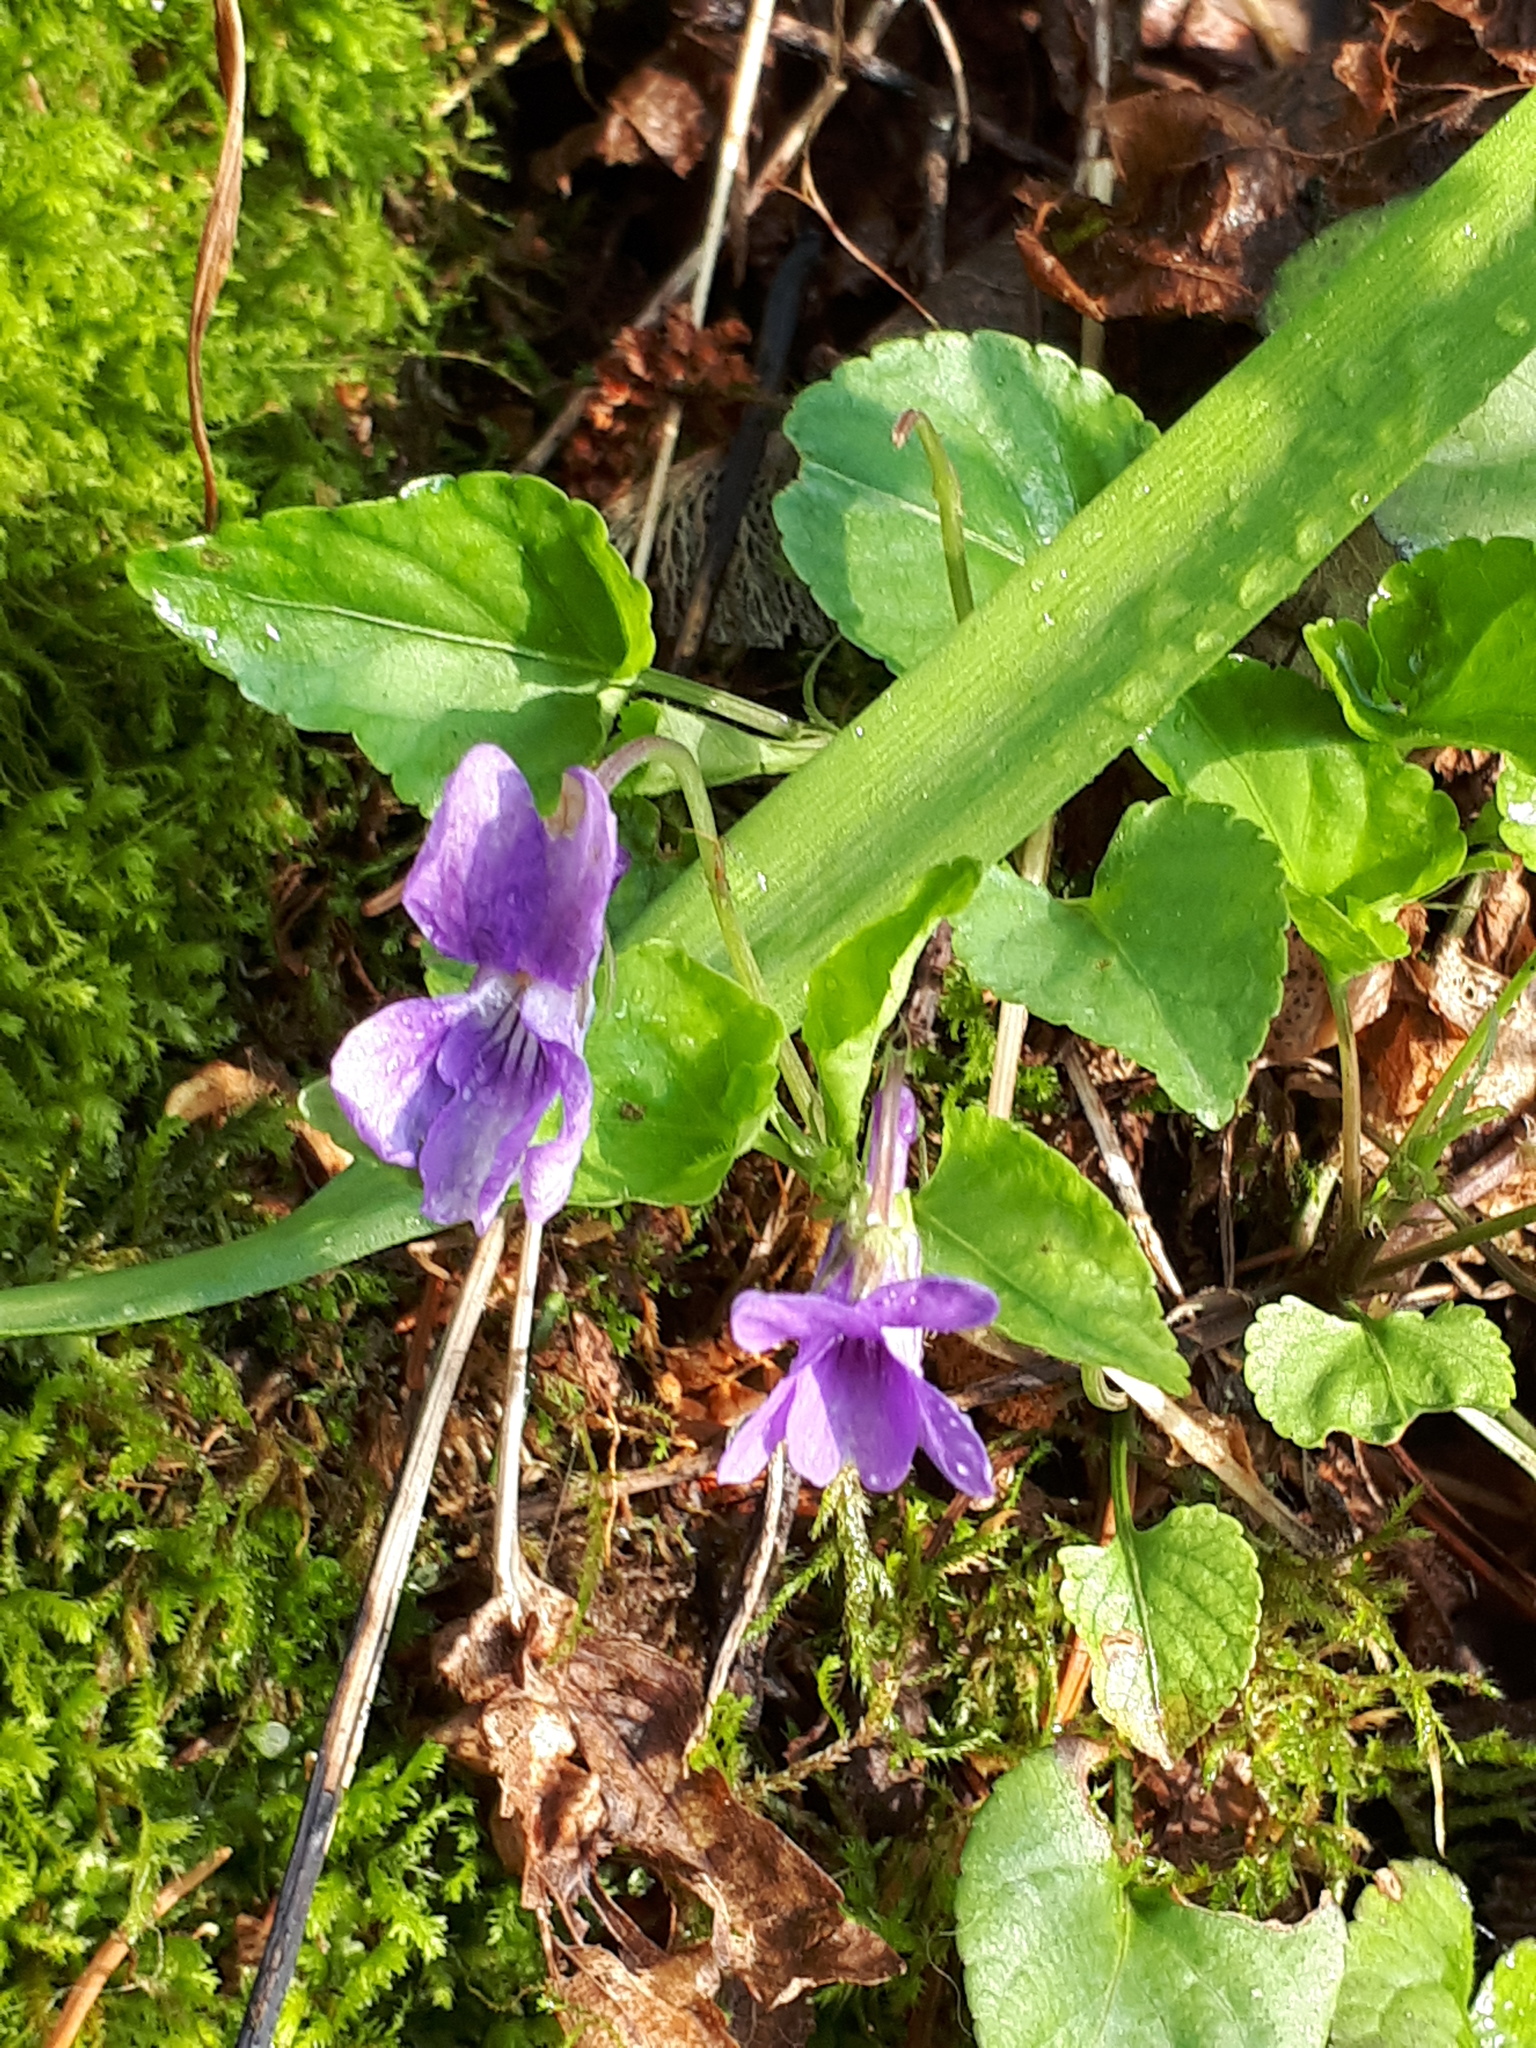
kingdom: Plantae
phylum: Tracheophyta
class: Magnoliopsida
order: Malpighiales
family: Violaceae
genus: Viola
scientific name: Viola reichenbachiana
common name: Early dog-violet
